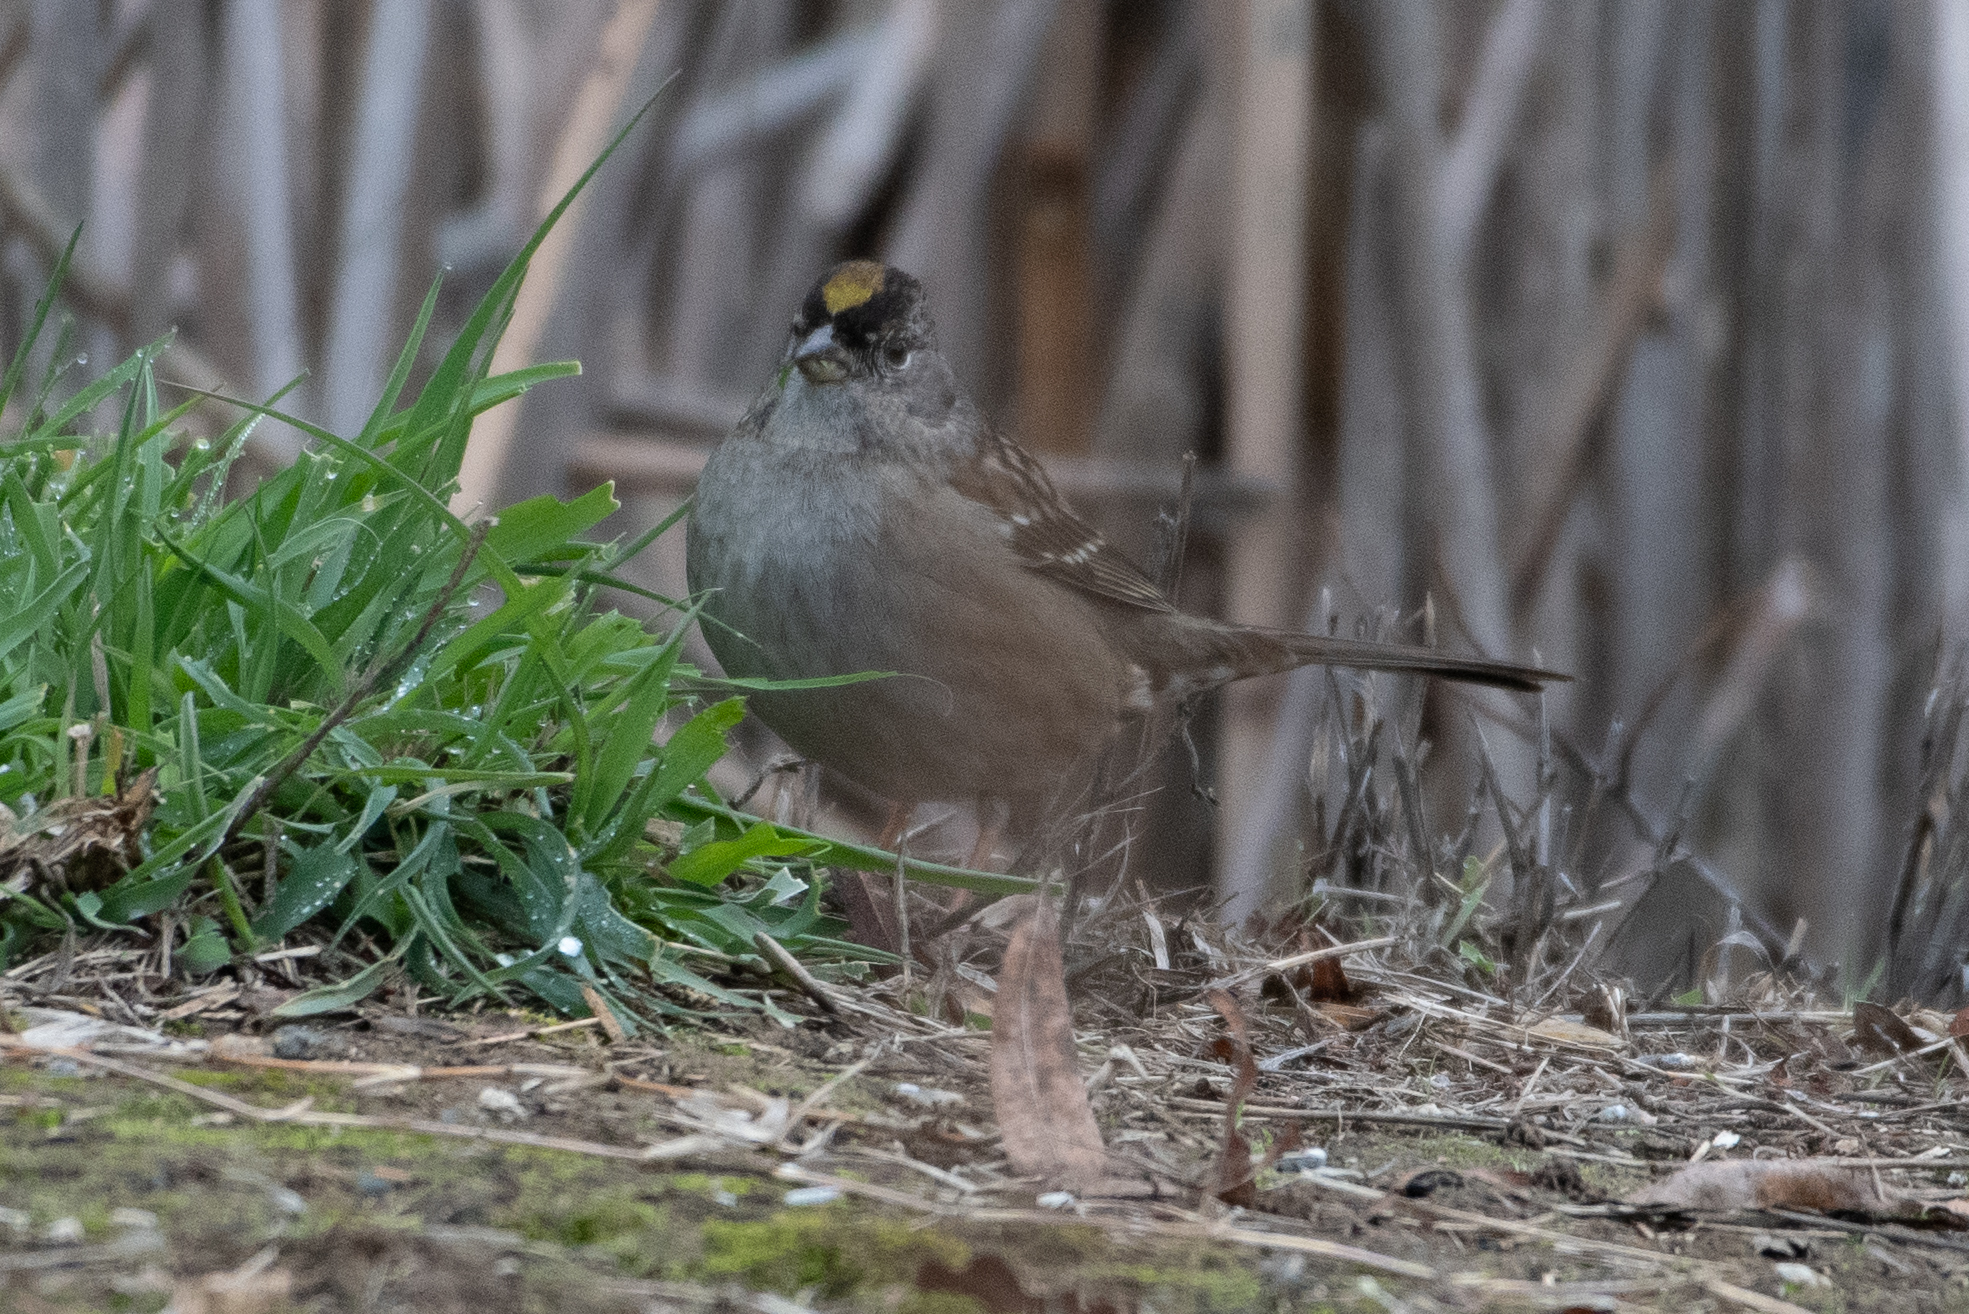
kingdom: Animalia
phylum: Chordata
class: Aves
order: Passeriformes
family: Passerellidae
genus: Zonotrichia
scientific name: Zonotrichia atricapilla
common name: Golden-crowned sparrow
